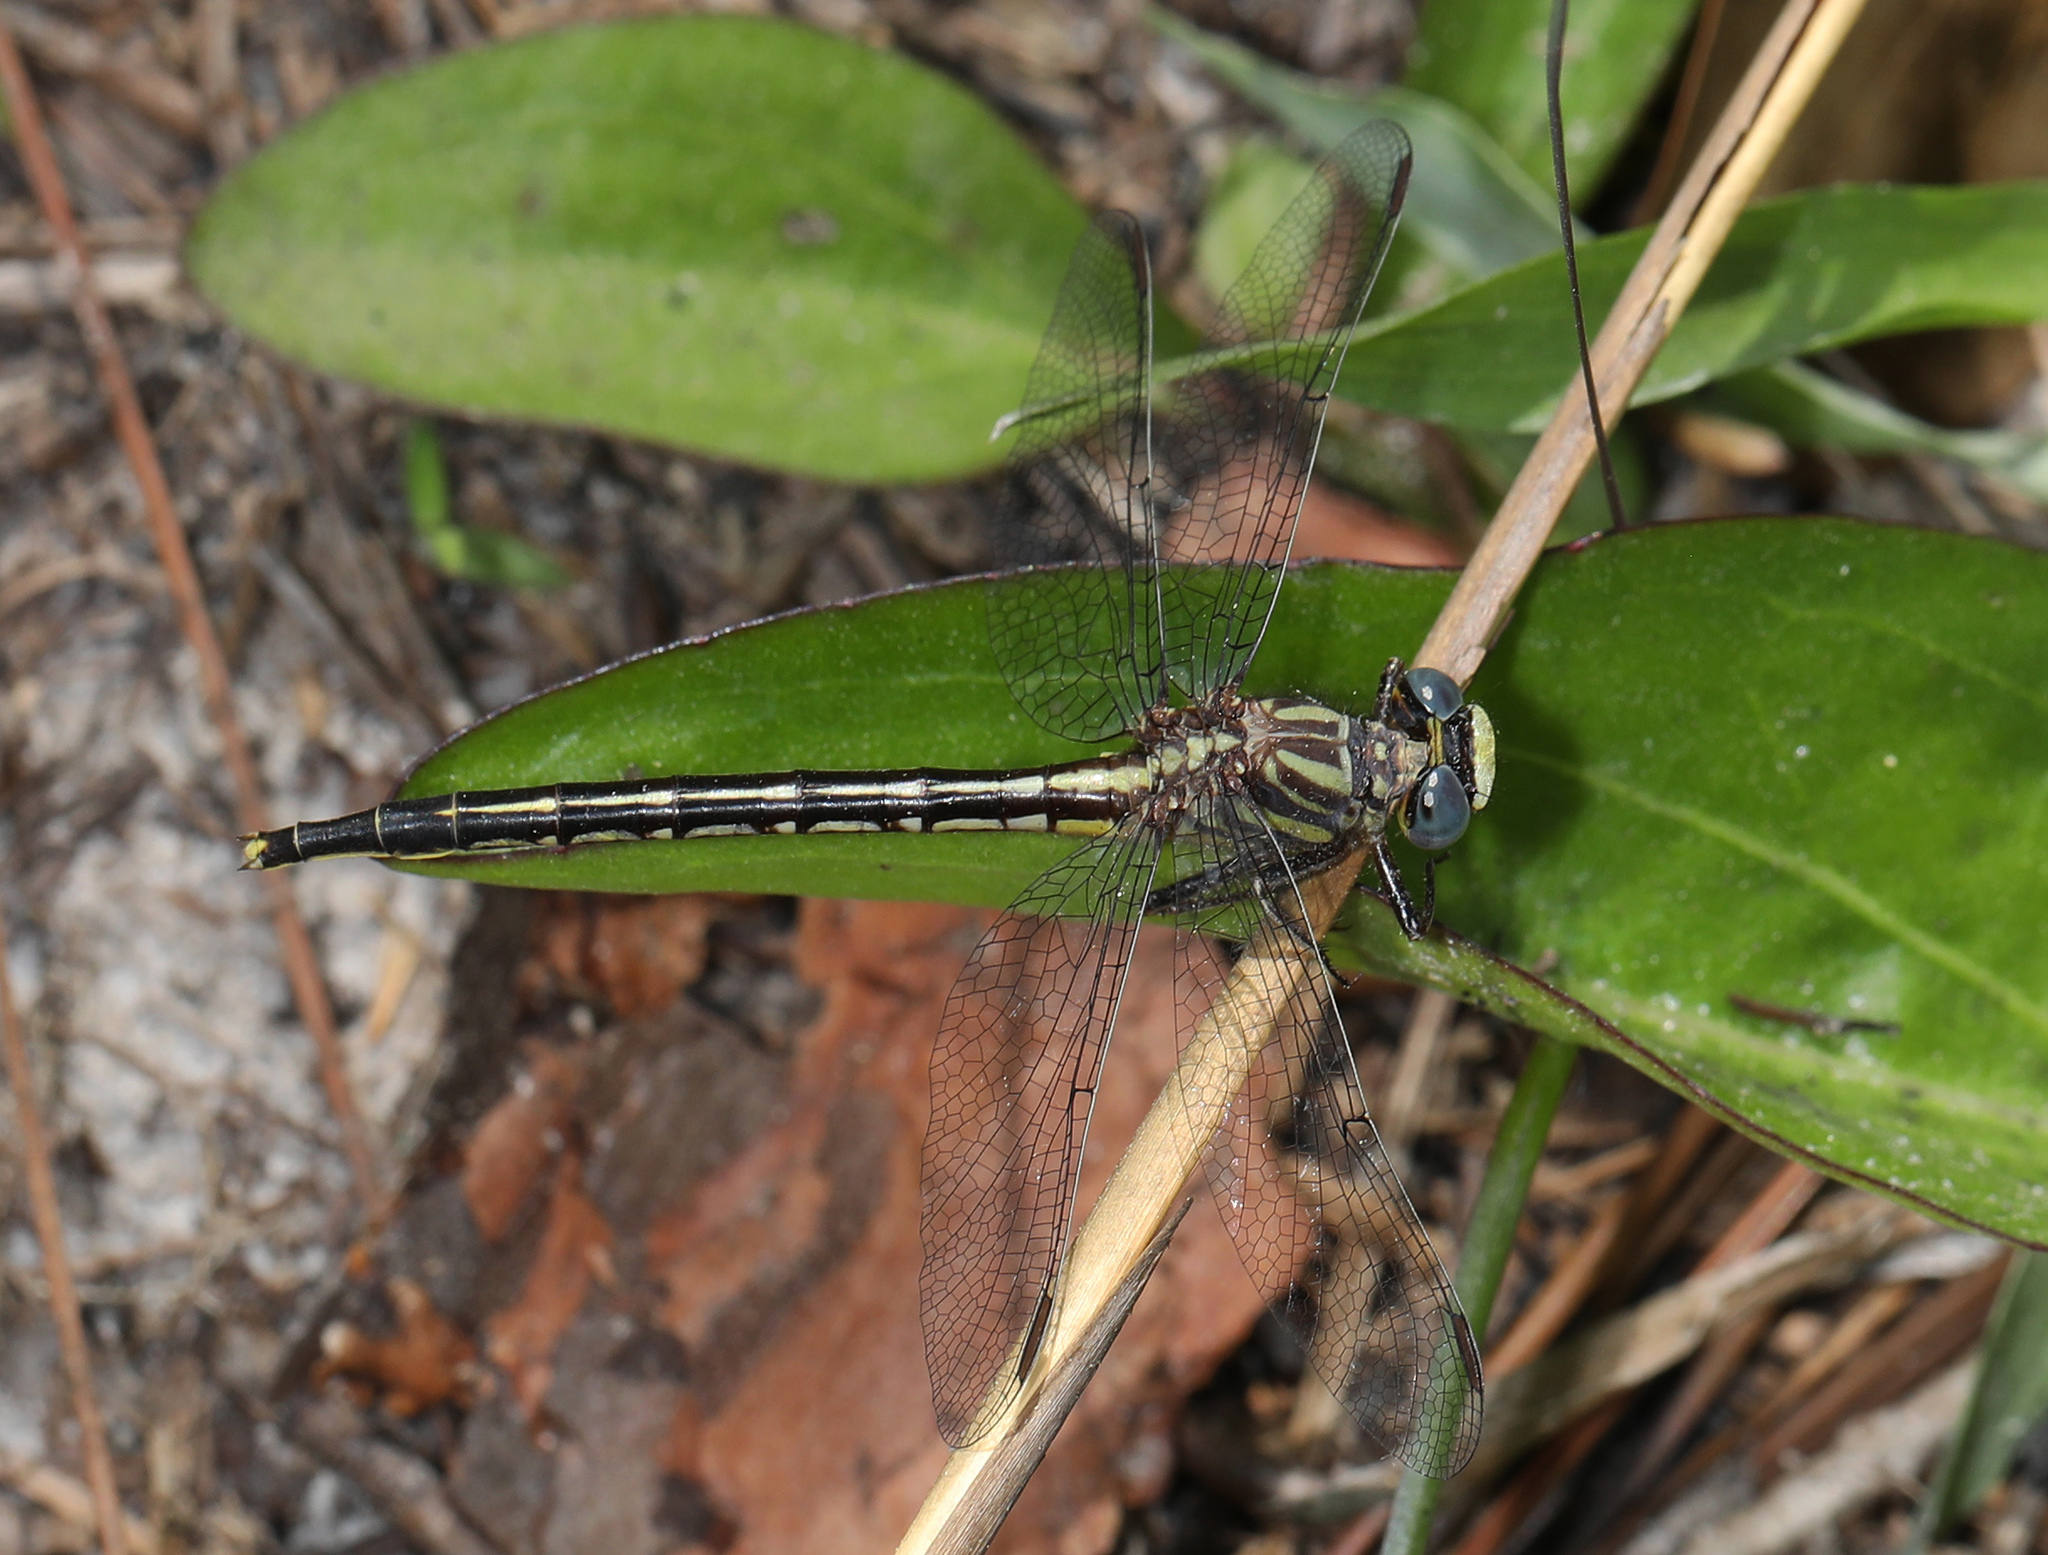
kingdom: Animalia
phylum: Arthropoda
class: Insecta
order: Odonata
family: Gomphidae
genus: Phanogomphus
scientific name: Phanogomphus westfalli
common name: Westfall’s clubtail
